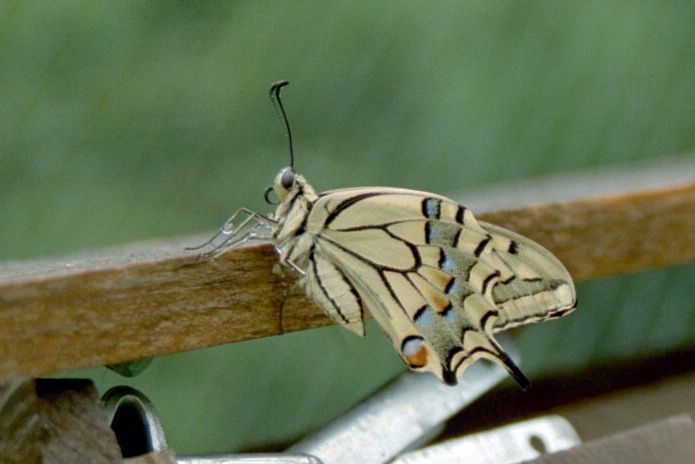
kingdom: Animalia
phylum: Arthropoda
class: Insecta
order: Lepidoptera
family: Papilionidae
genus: Papilio
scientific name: Papilio machaon
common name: Swallowtail
